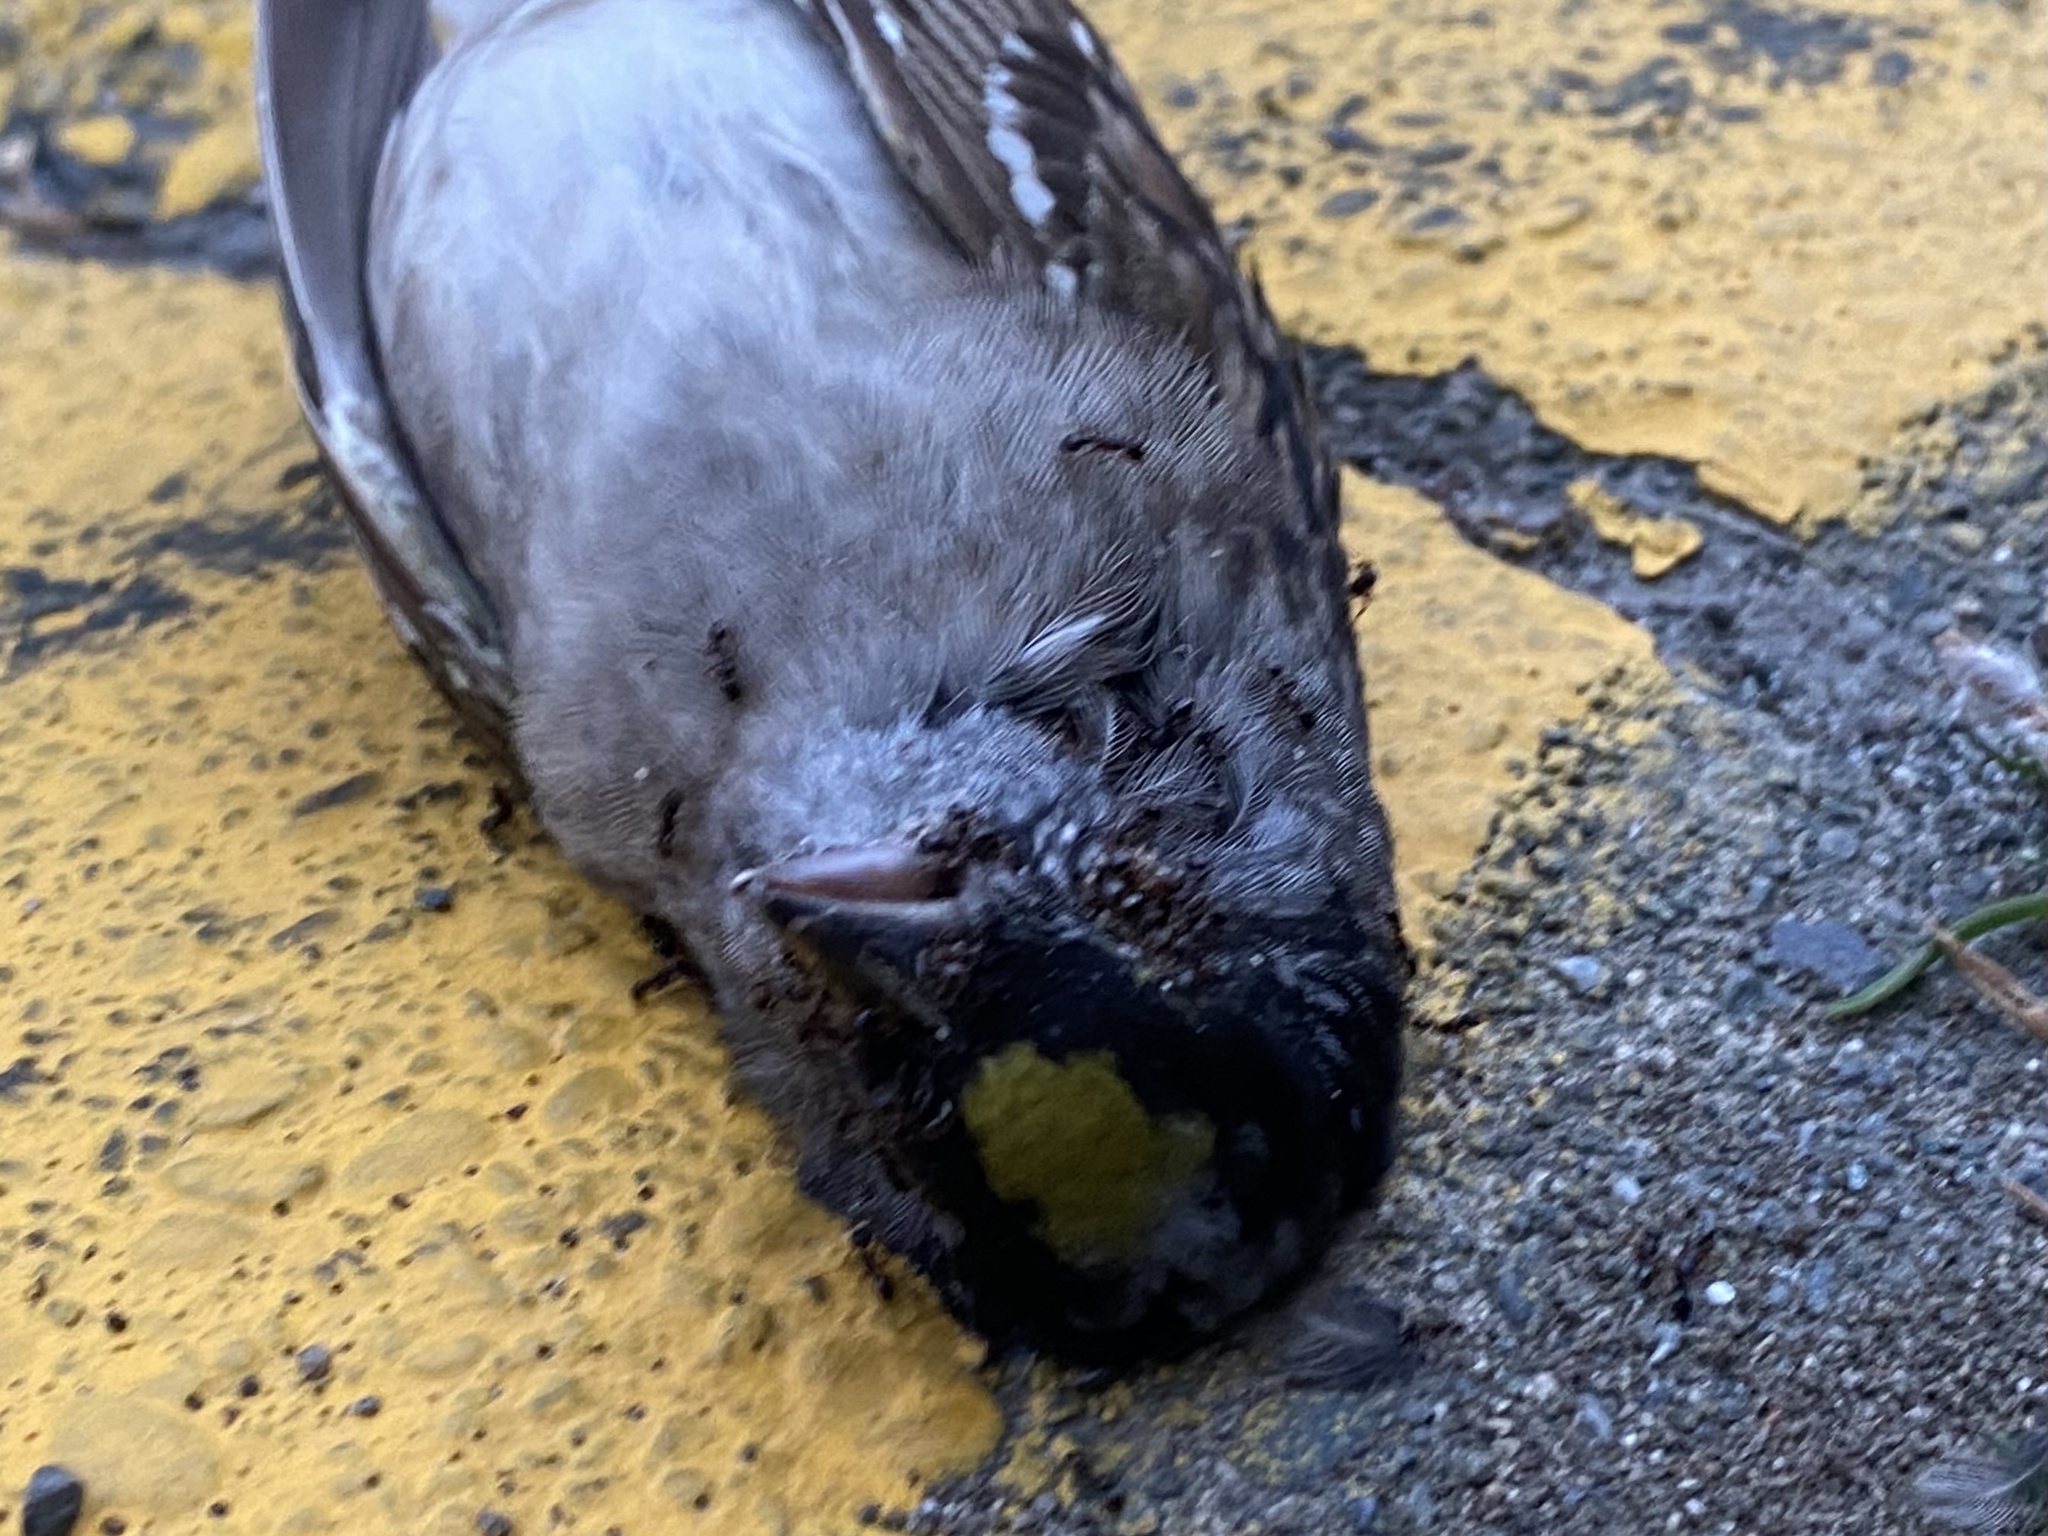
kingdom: Animalia
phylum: Chordata
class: Aves
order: Passeriformes
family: Passerellidae
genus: Zonotrichia
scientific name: Zonotrichia atricapilla
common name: Golden-crowned sparrow
